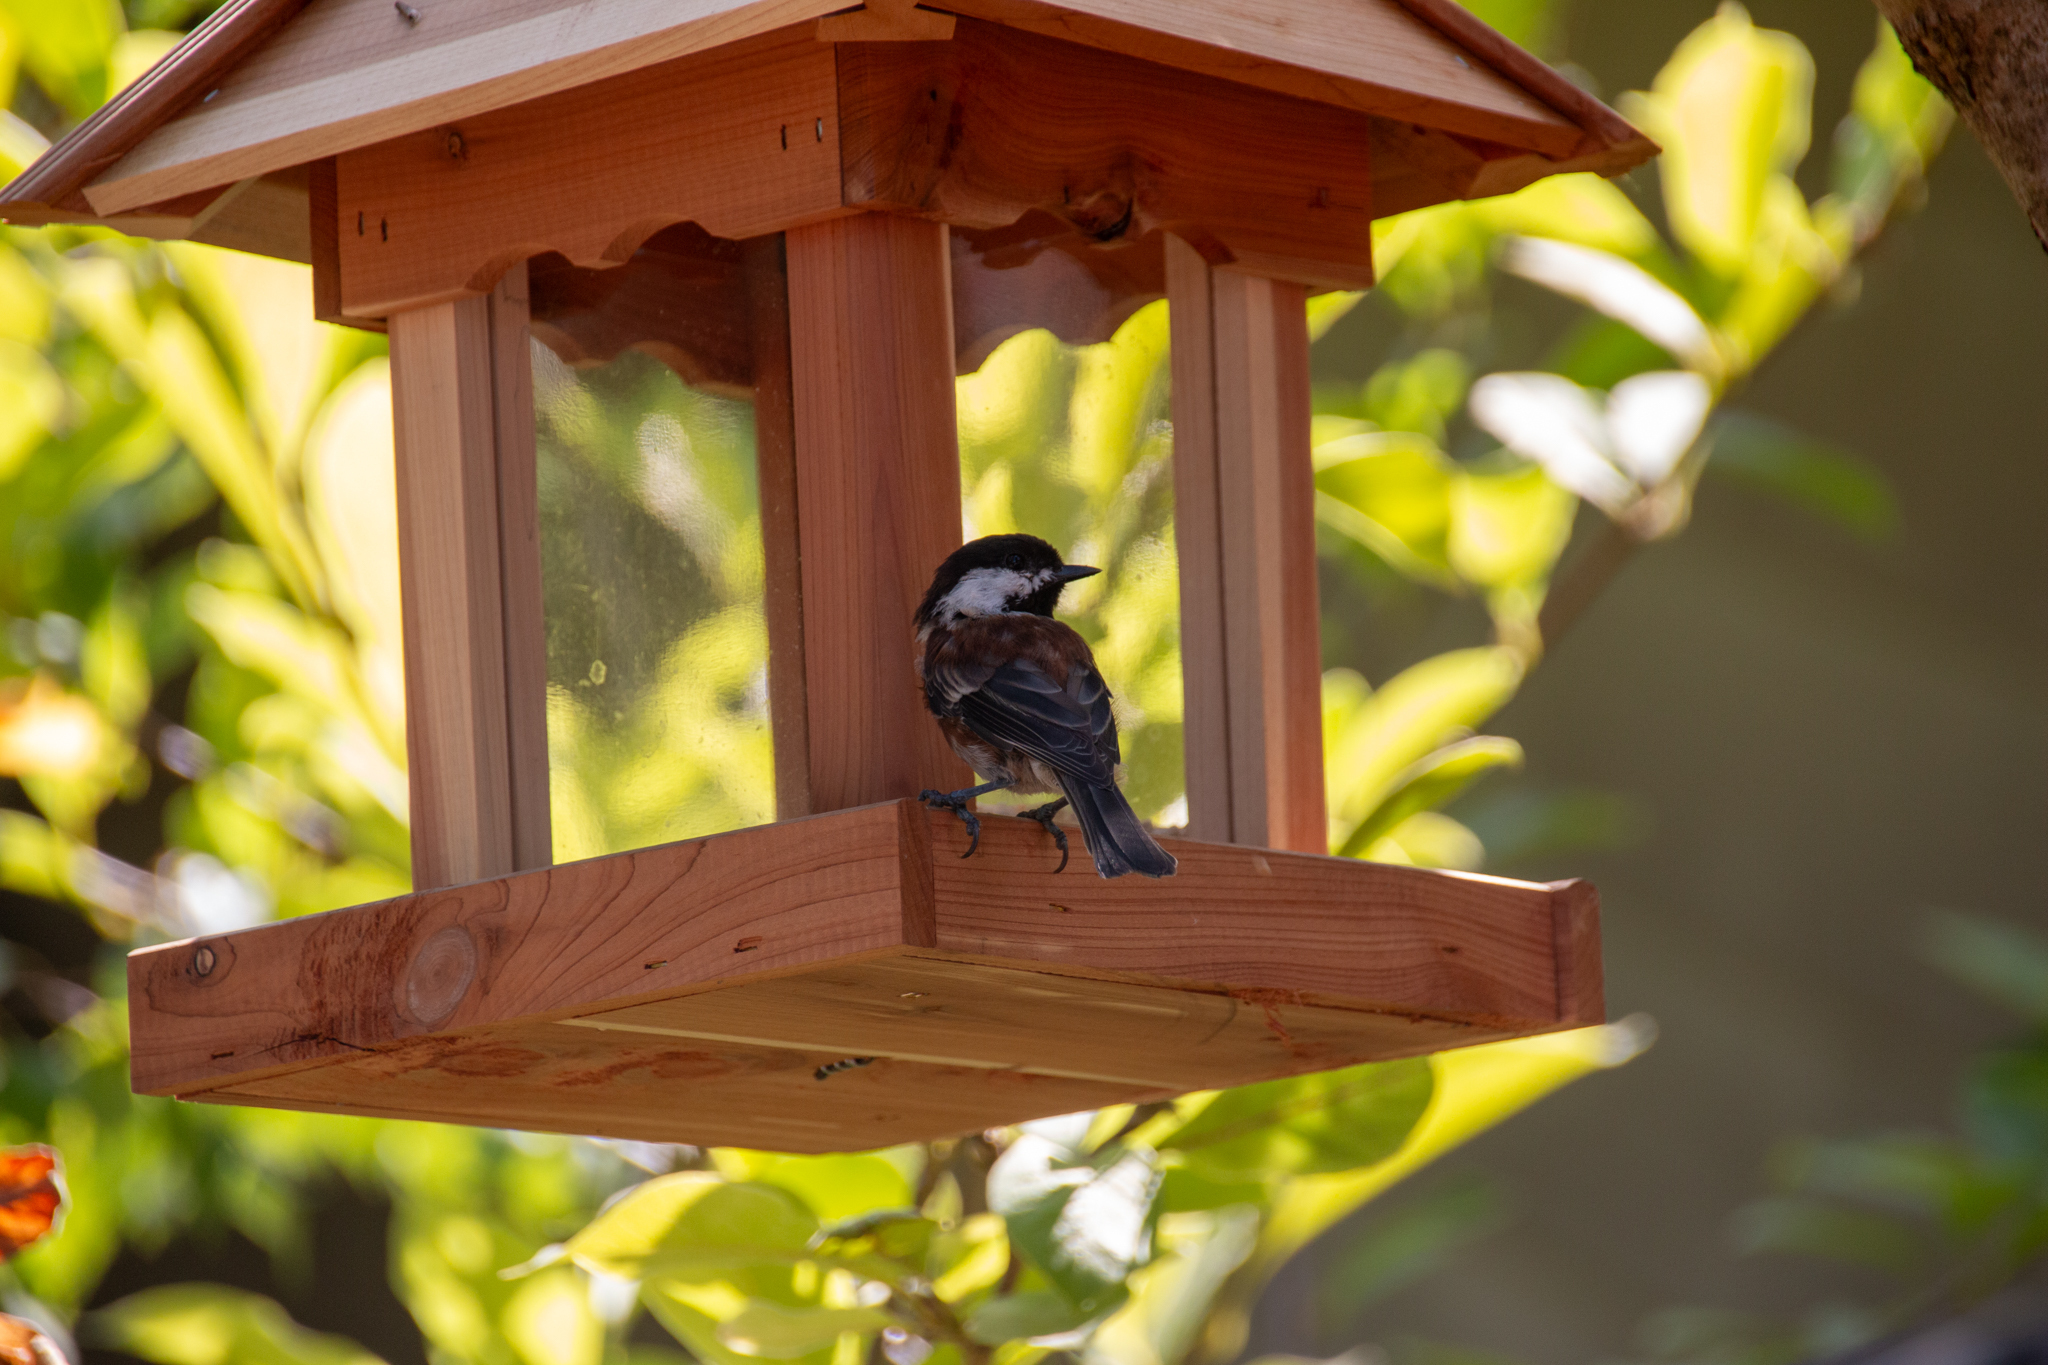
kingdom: Animalia
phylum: Chordata
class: Aves
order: Passeriformes
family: Paridae
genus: Poecile
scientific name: Poecile rufescens
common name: Chestnut-backed chickadee
